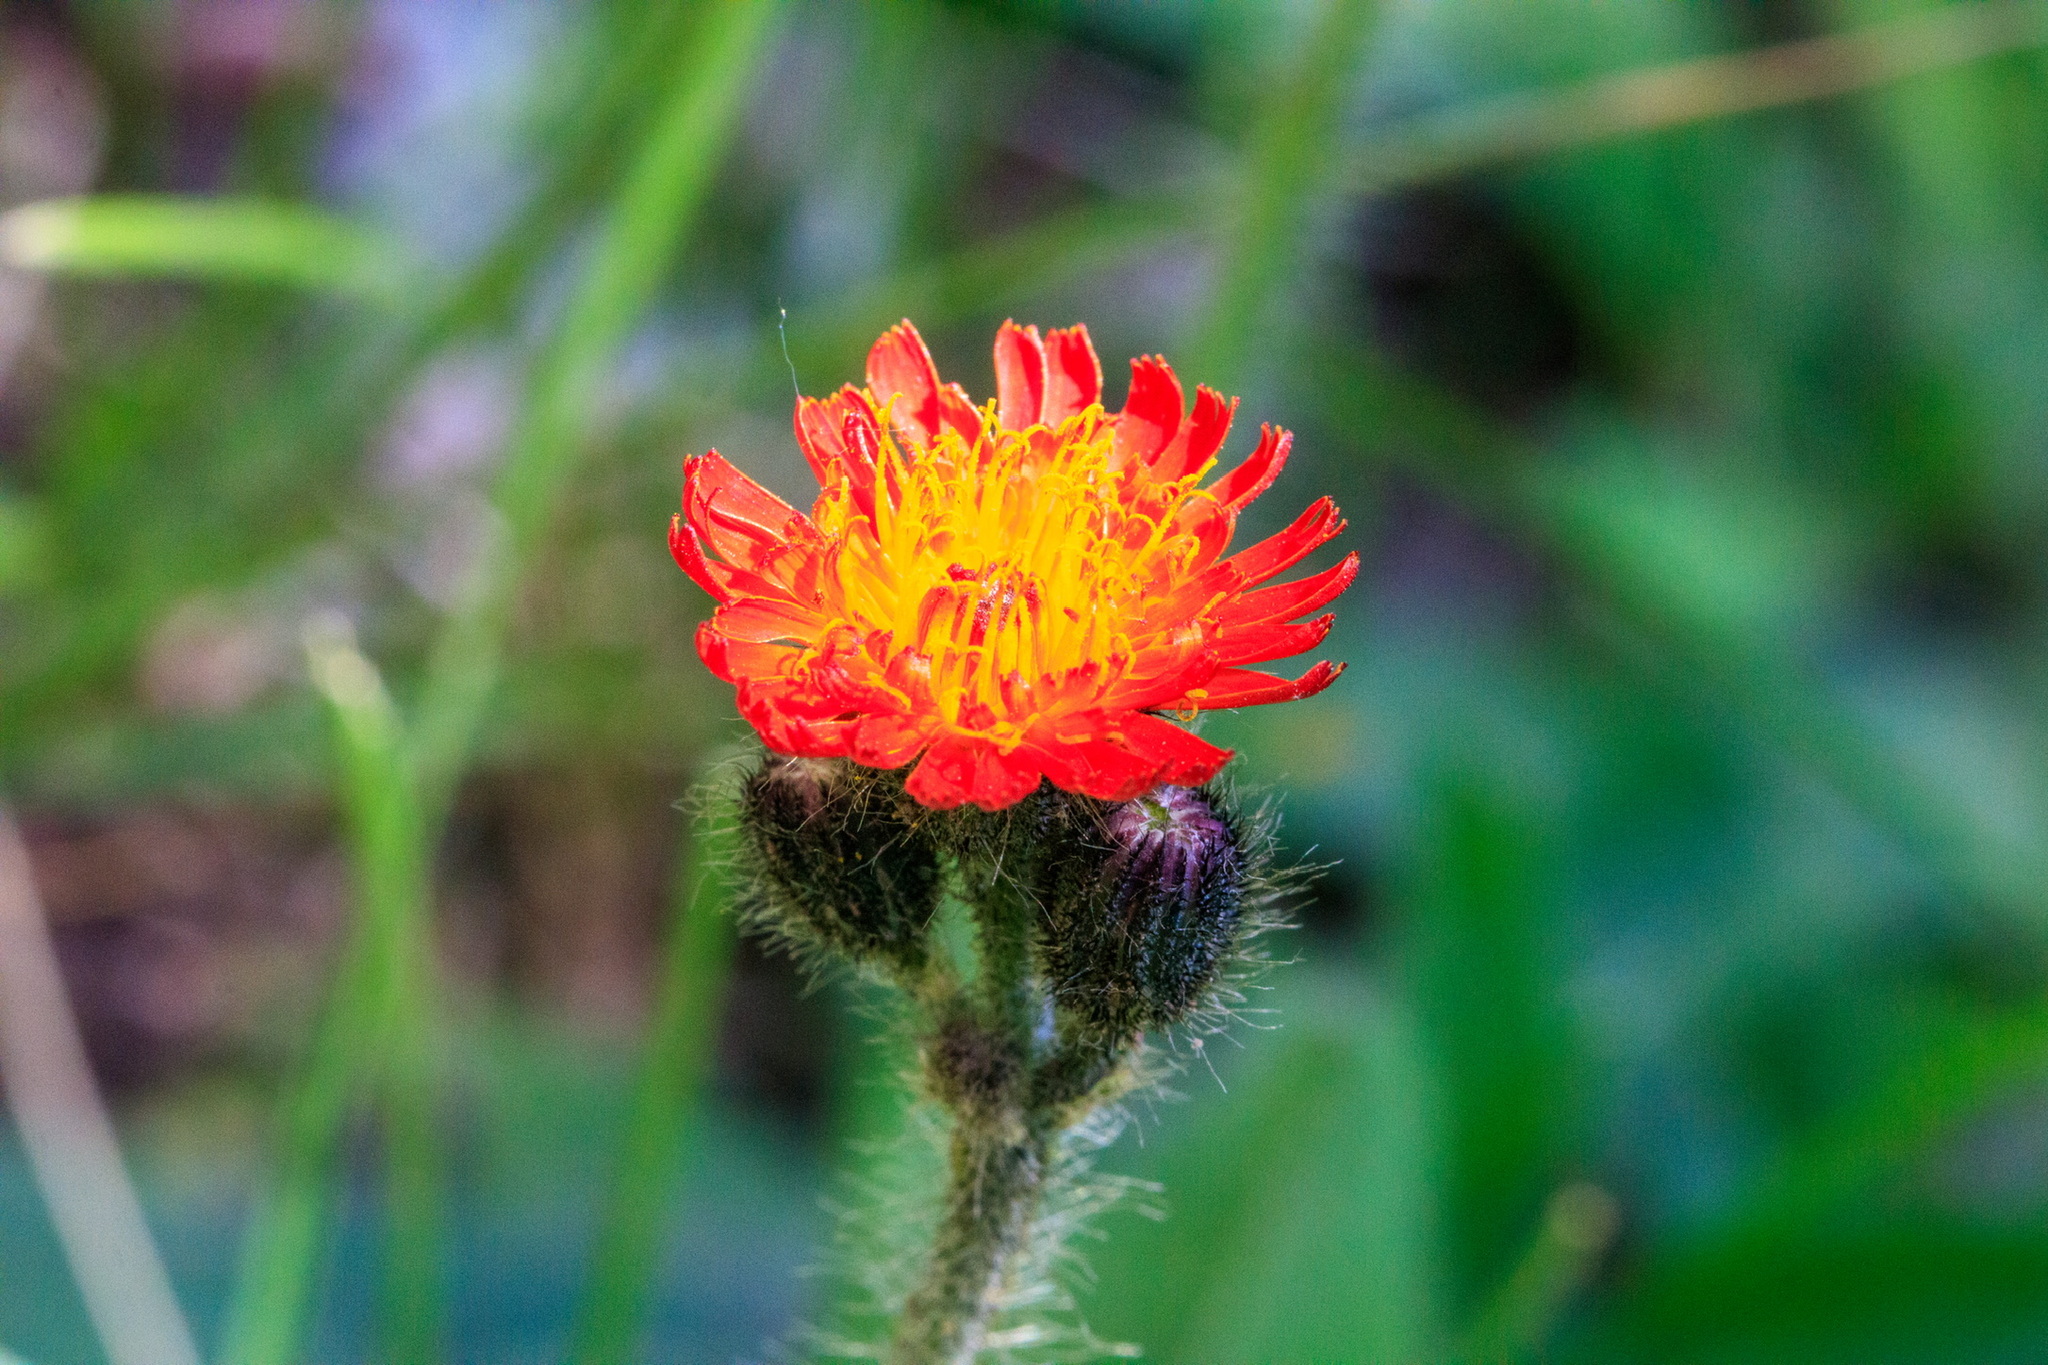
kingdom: Plantae
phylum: Tracheophyta
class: Magnoliopsida
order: Asterales
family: Asteraceae
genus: Pilosella
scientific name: Pilosella aurantiaca
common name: Fox-and-cubs
